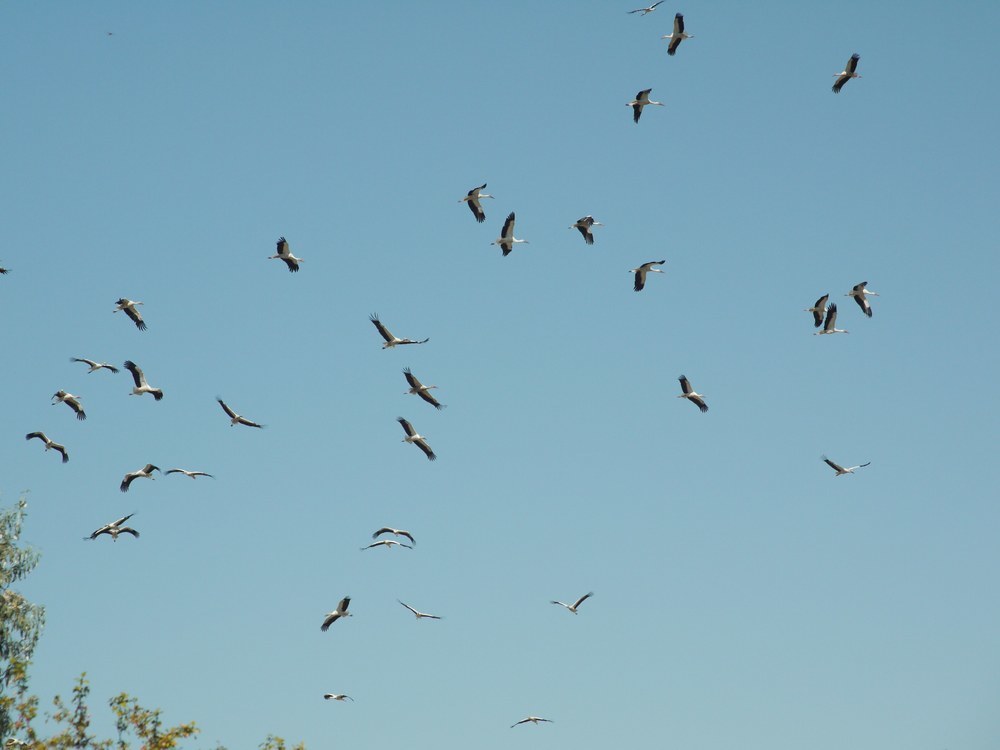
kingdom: Animalia
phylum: Chordata
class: Aves
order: Ciconiiformes
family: Ciconiidae
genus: Ciconia
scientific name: Ciconia ciconia
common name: White stork
